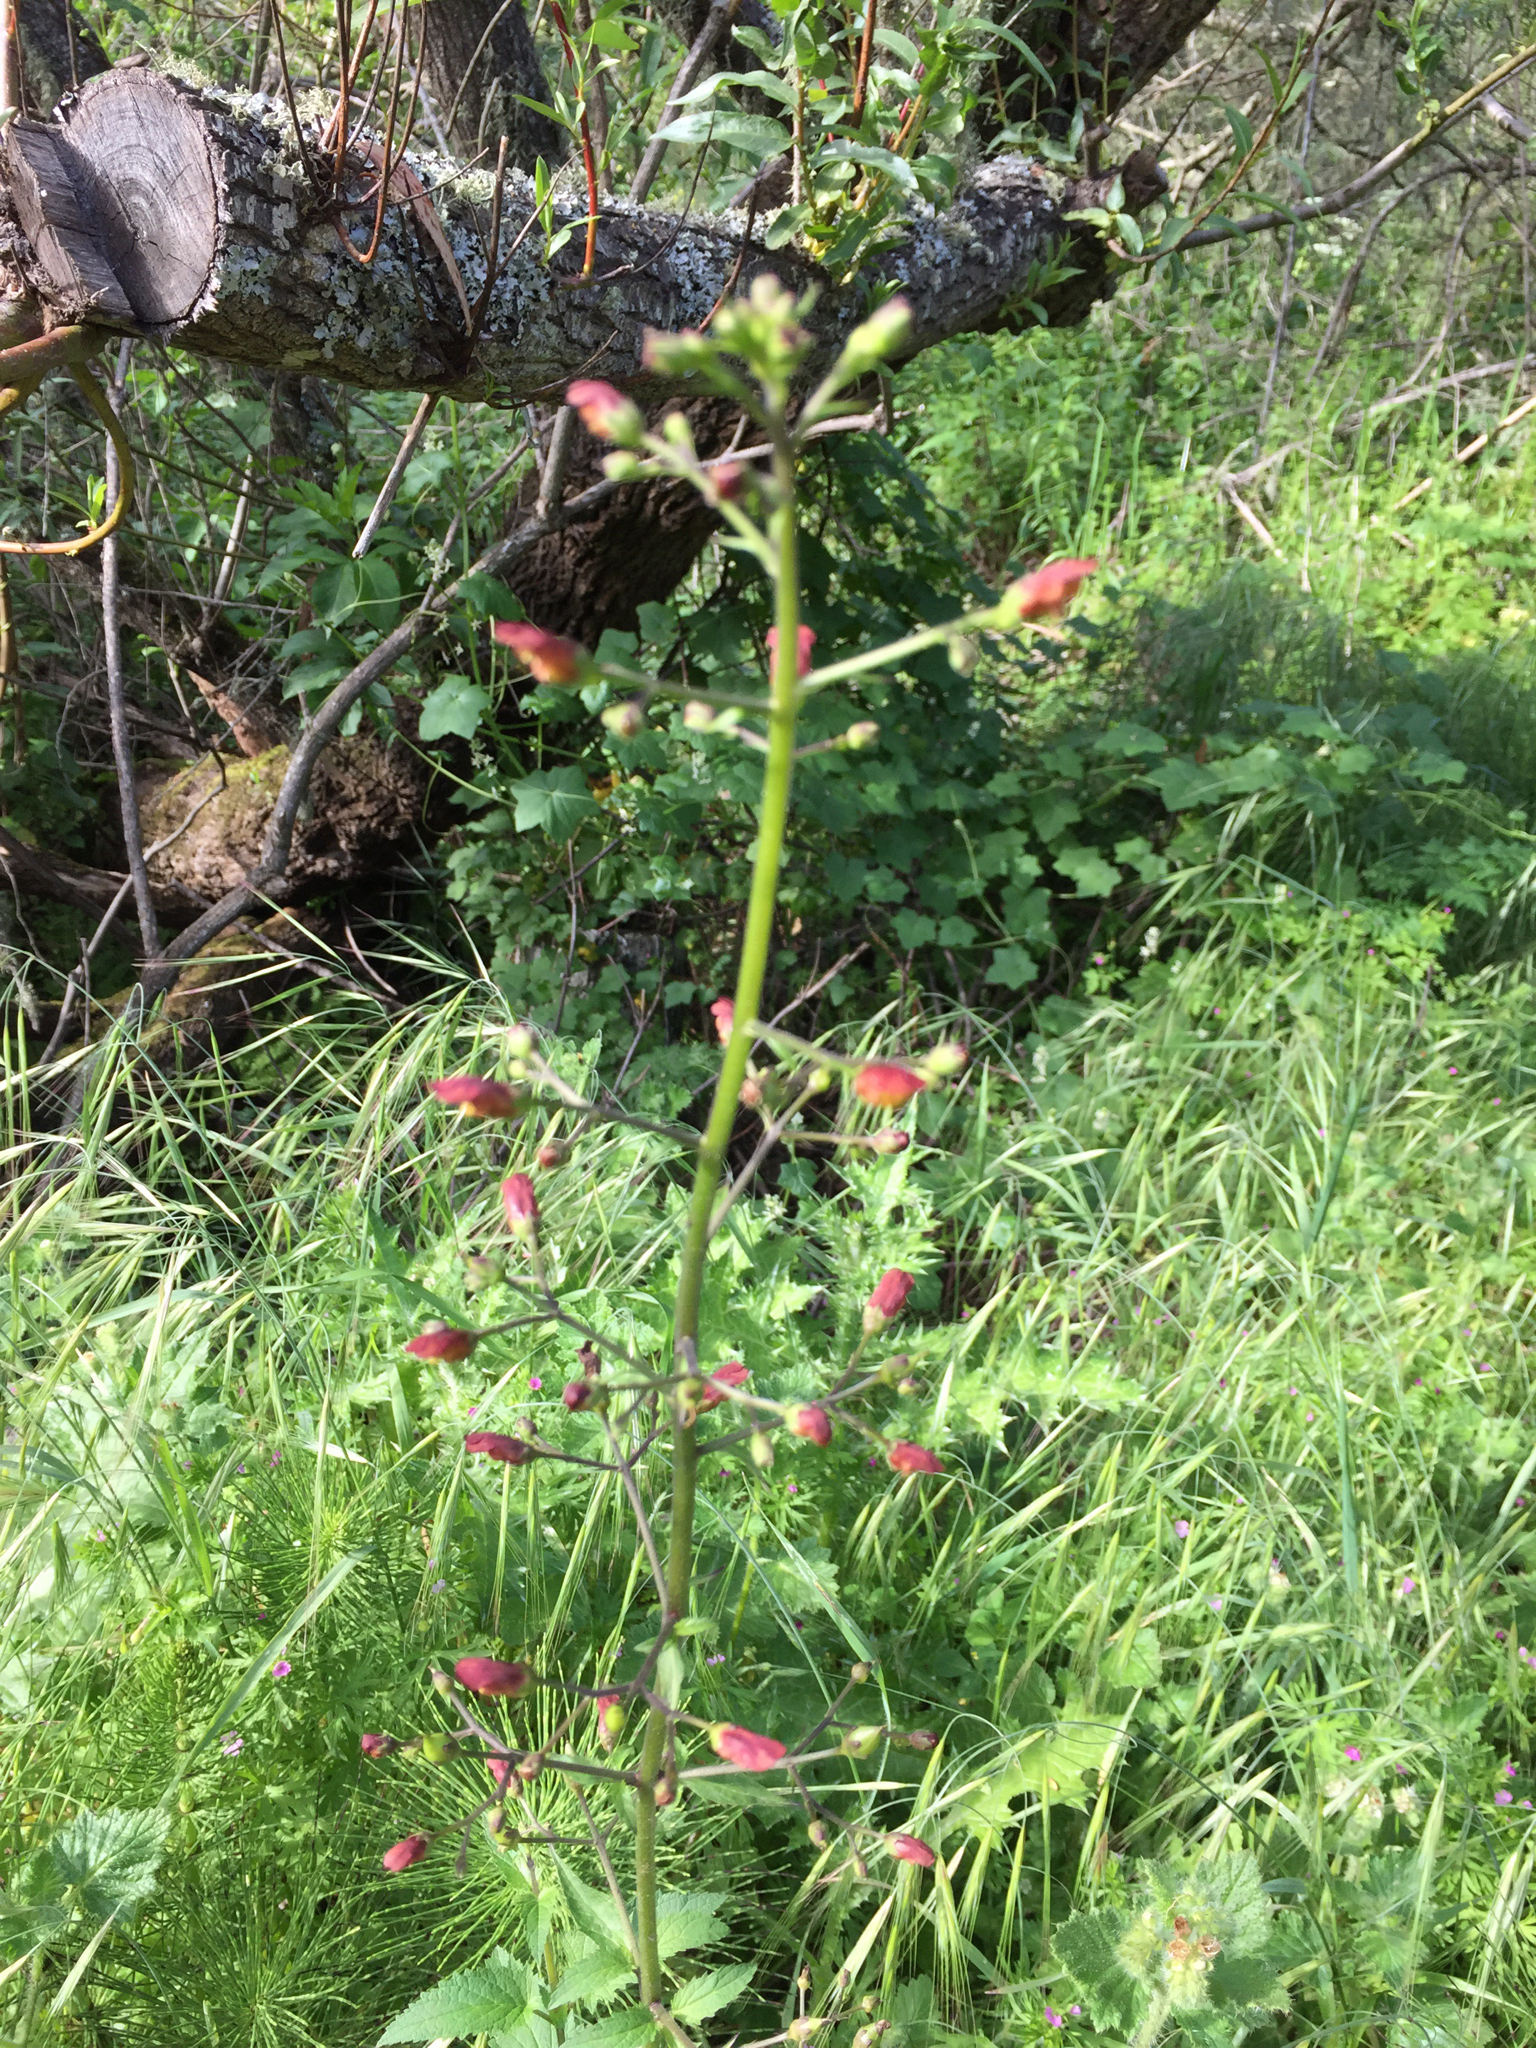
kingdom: Plantae
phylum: Tracheophyta
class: Magnoliopsida
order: Lamiales
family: Scrophulariaceae
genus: Scrophularia
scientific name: Scrophularia californica
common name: California figwort
